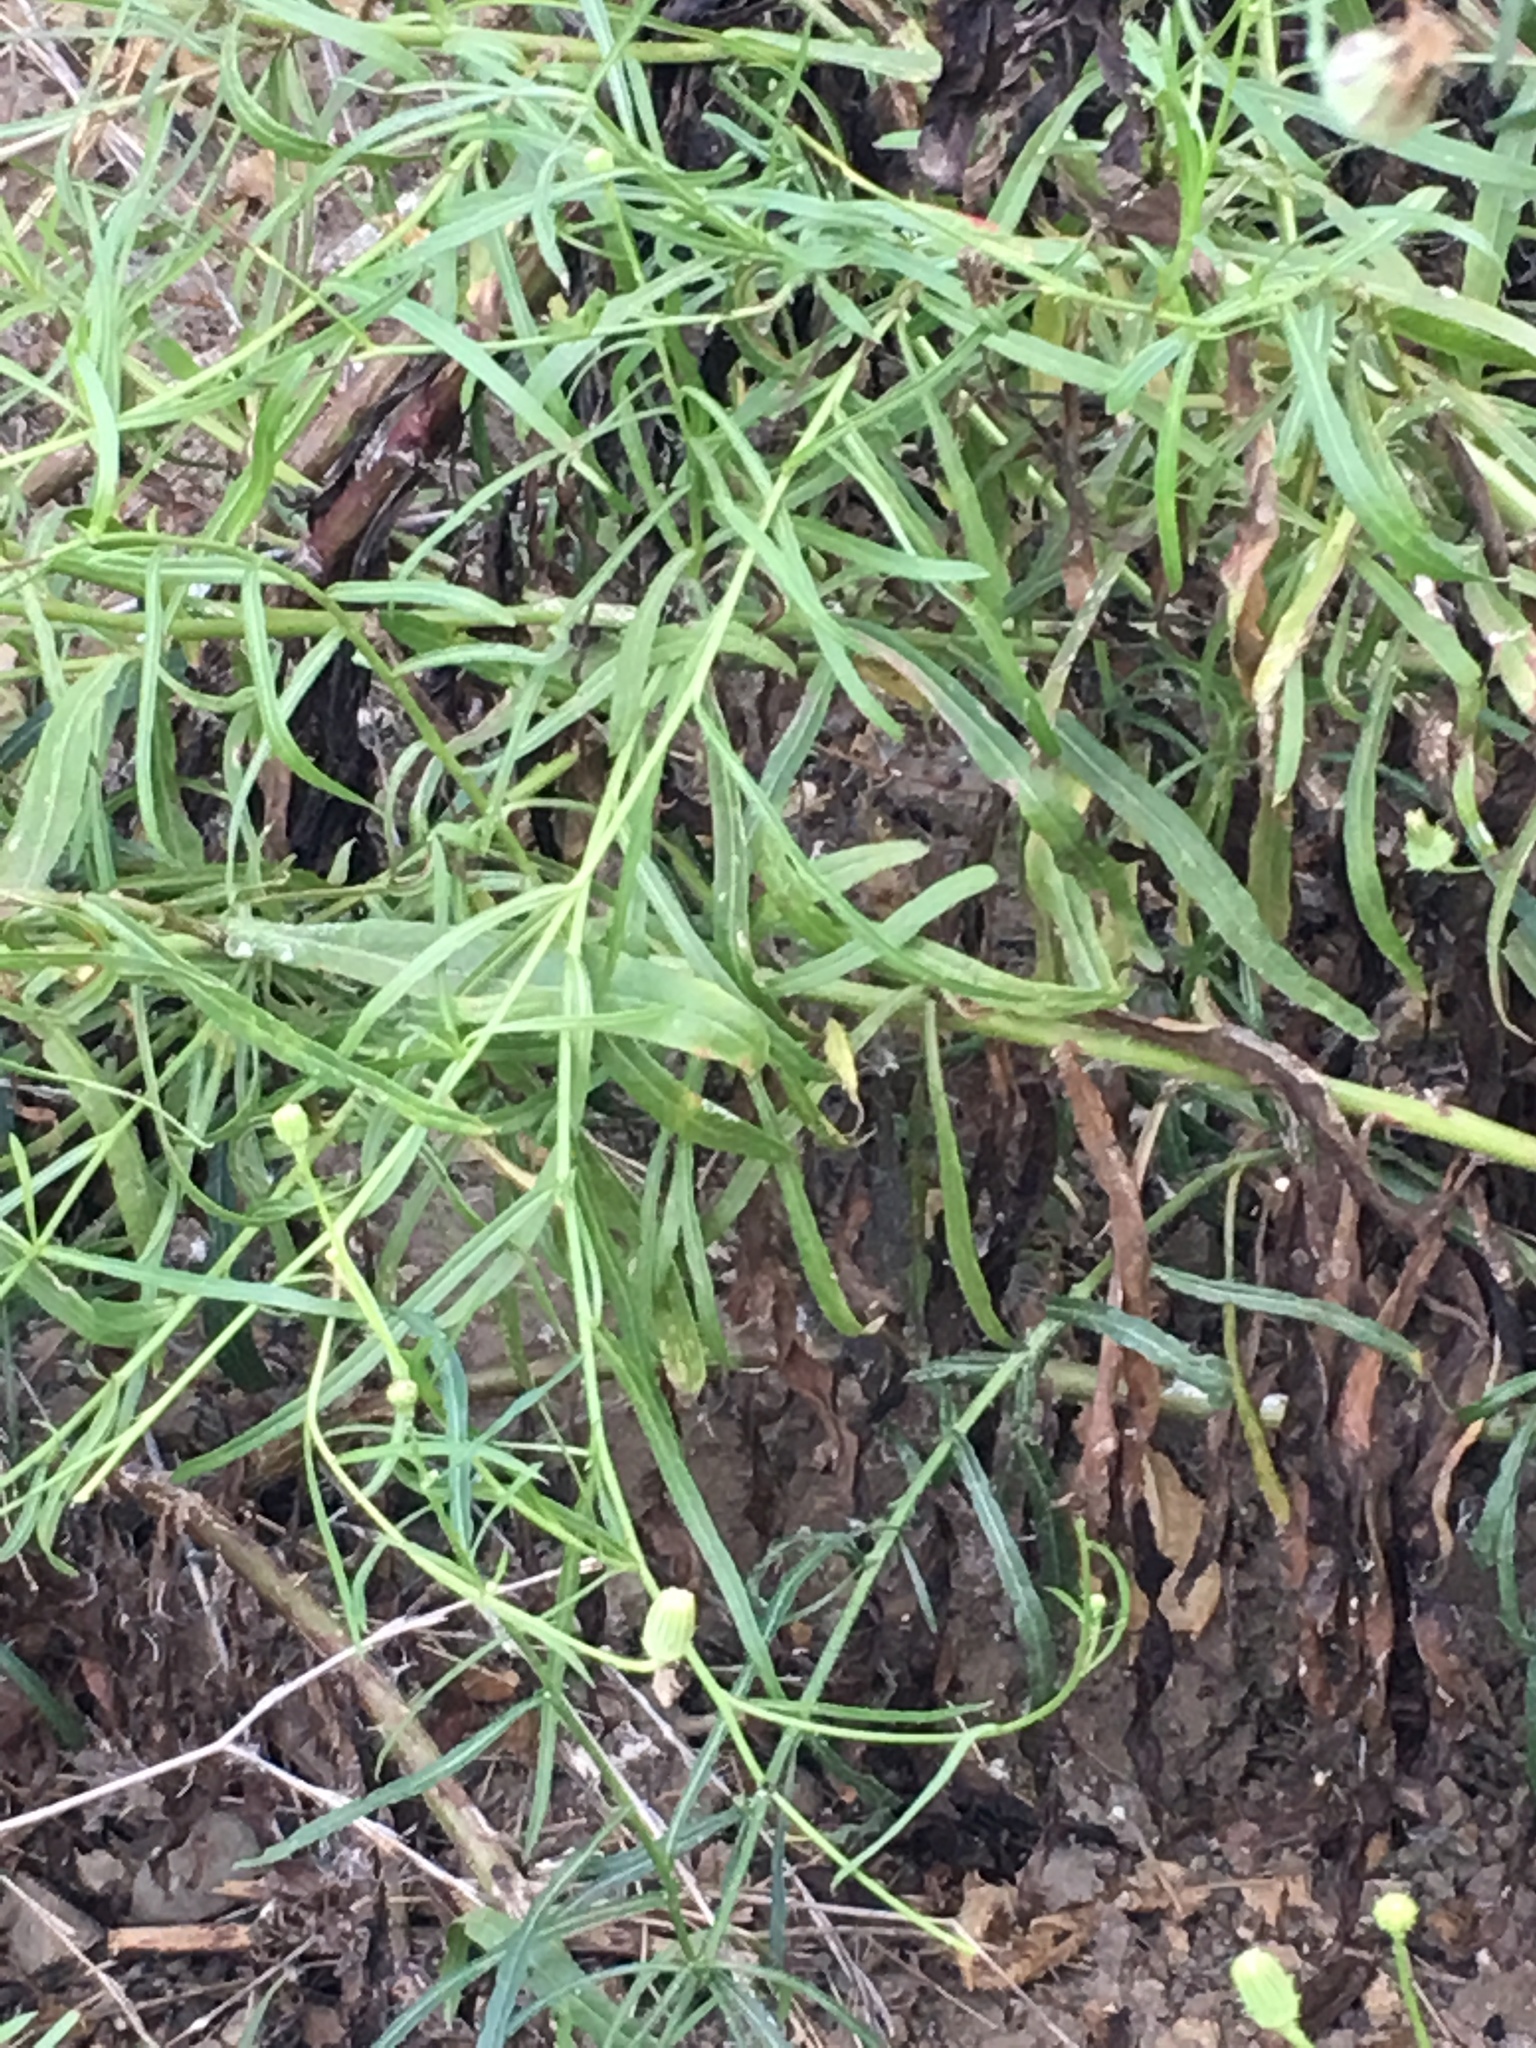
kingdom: Plantae
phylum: Tracheophyta
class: Magnoliopsida
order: Asterales
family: Asteraceae
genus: Malacothrix
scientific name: Malacothrix saxatilis
